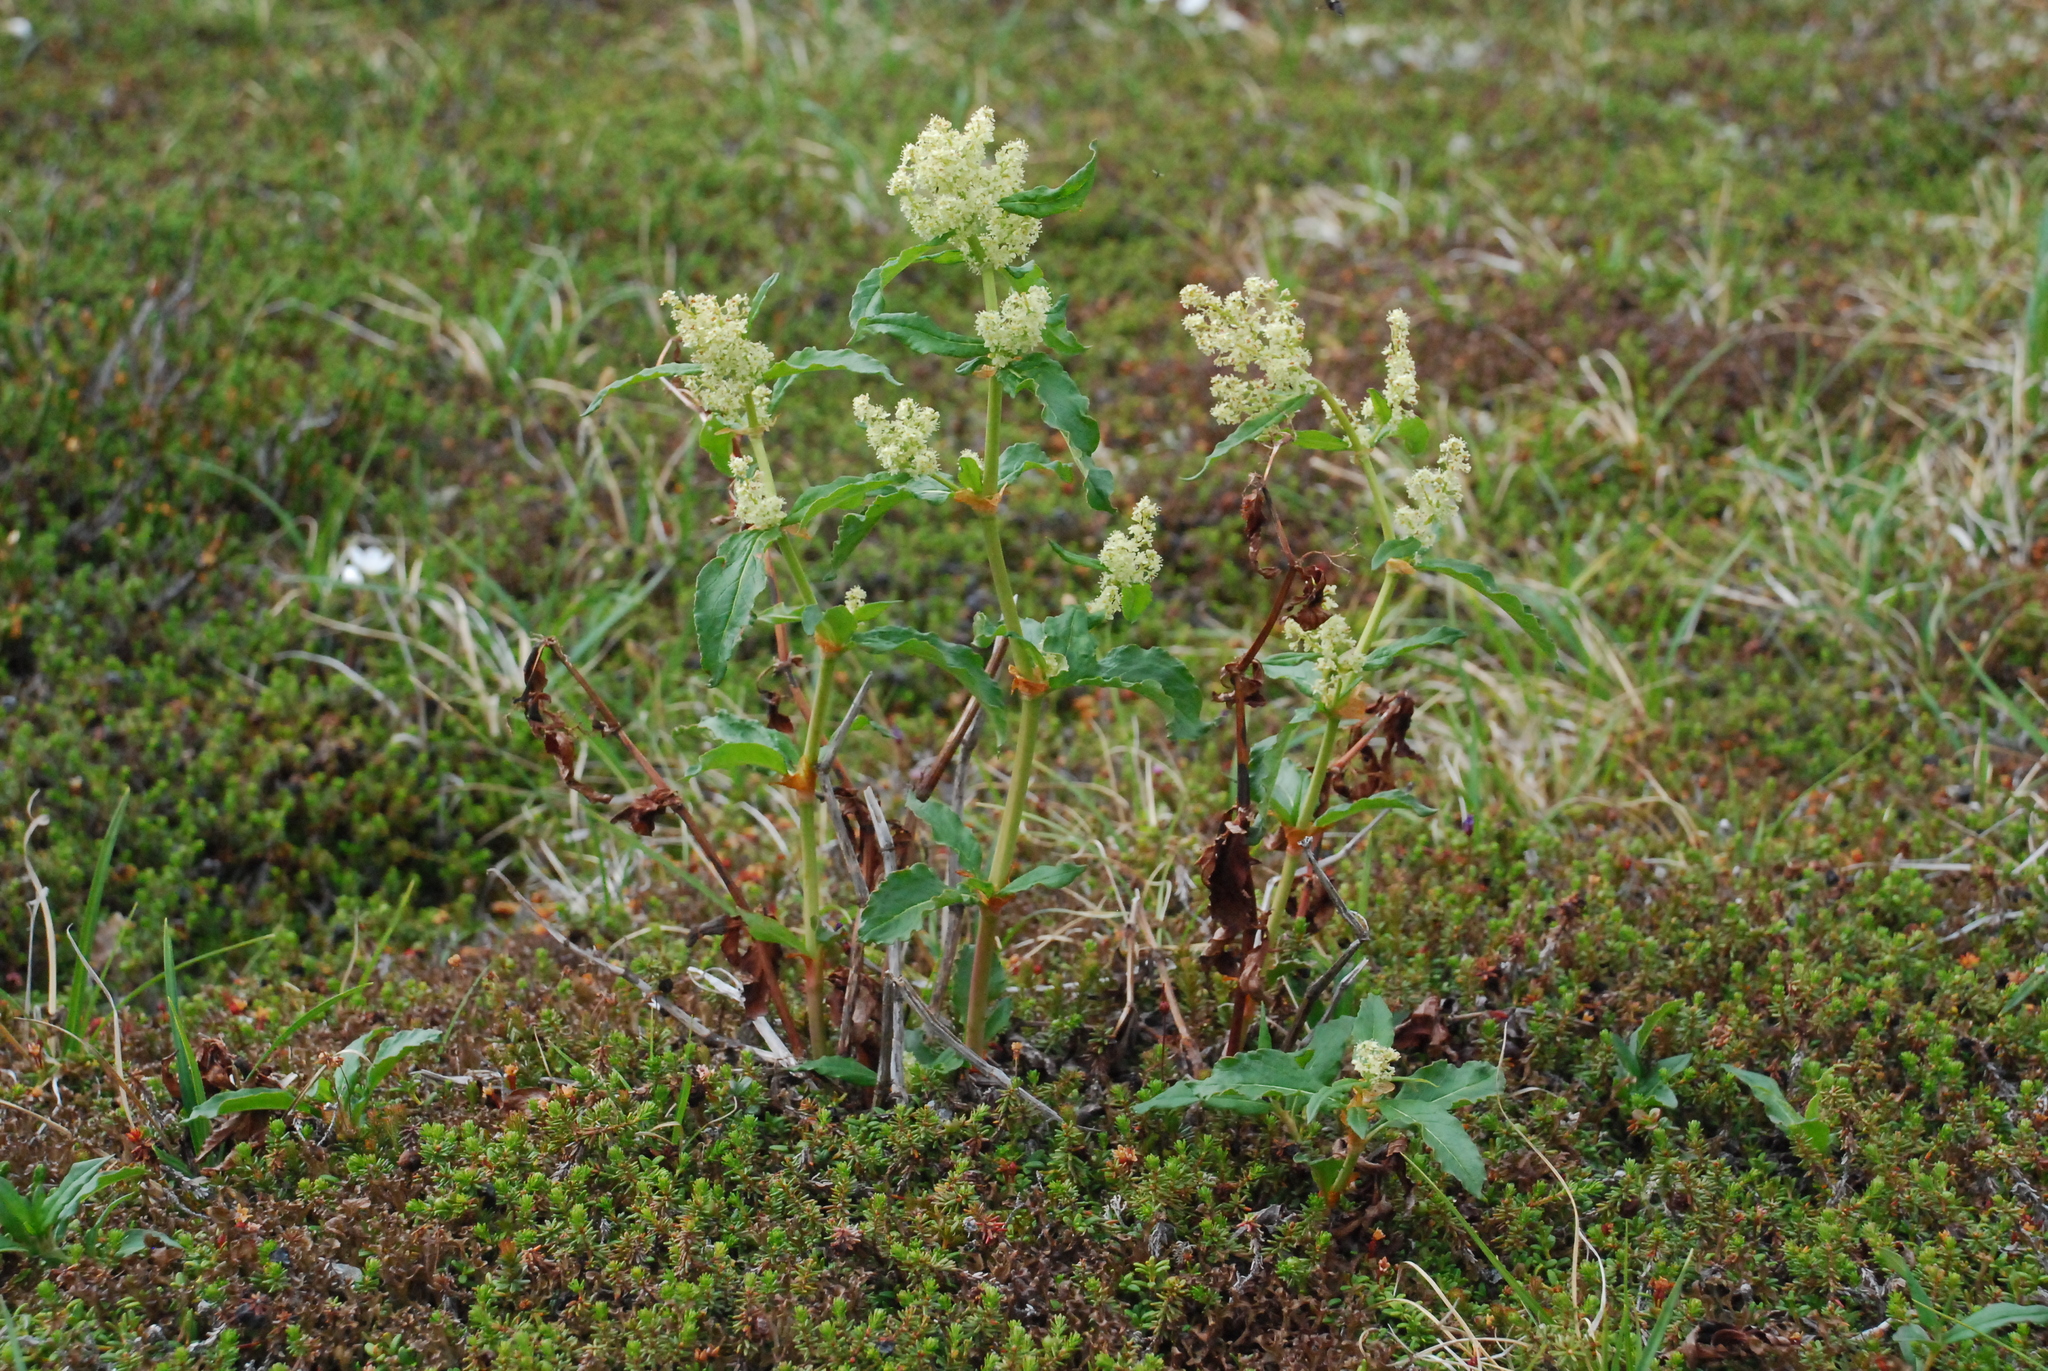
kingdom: Plantae
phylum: Tracheophyta
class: Magnoliopsida
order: Caryophyllales
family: Polygonaceae
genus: Koenigia
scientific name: Koenigia tripterocarpa
